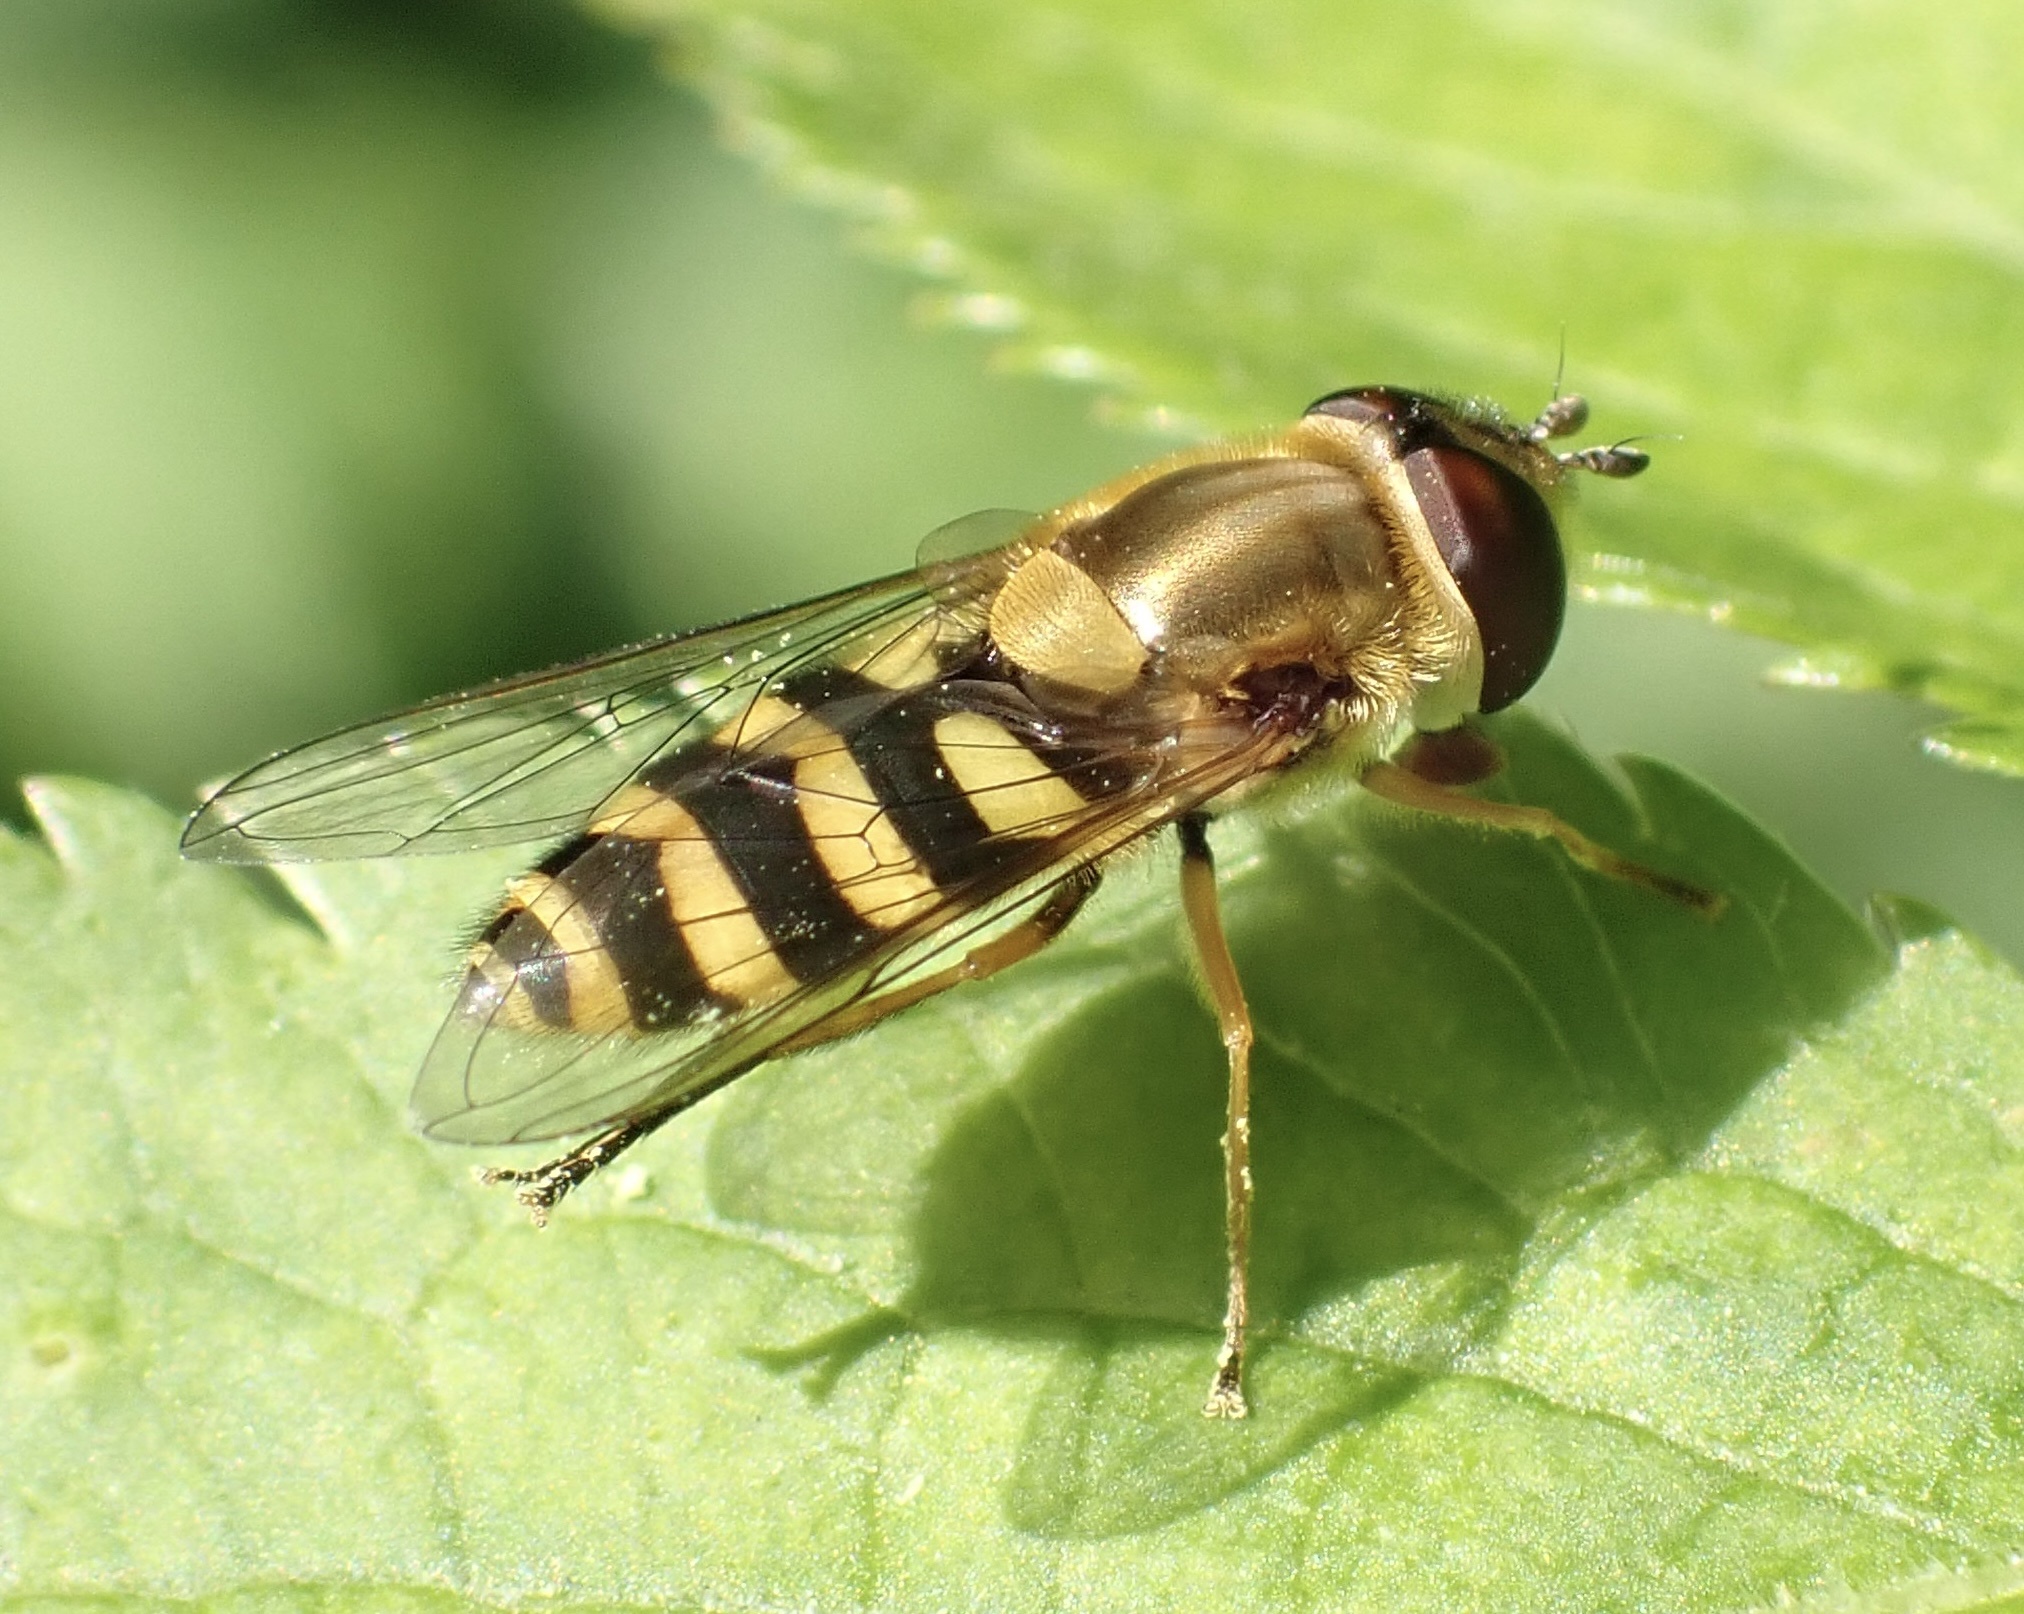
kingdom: Animalia
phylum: Arthropoda
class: Insecta
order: Diptera
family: Syrphidae
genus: Syrphus
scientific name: Syrphus
